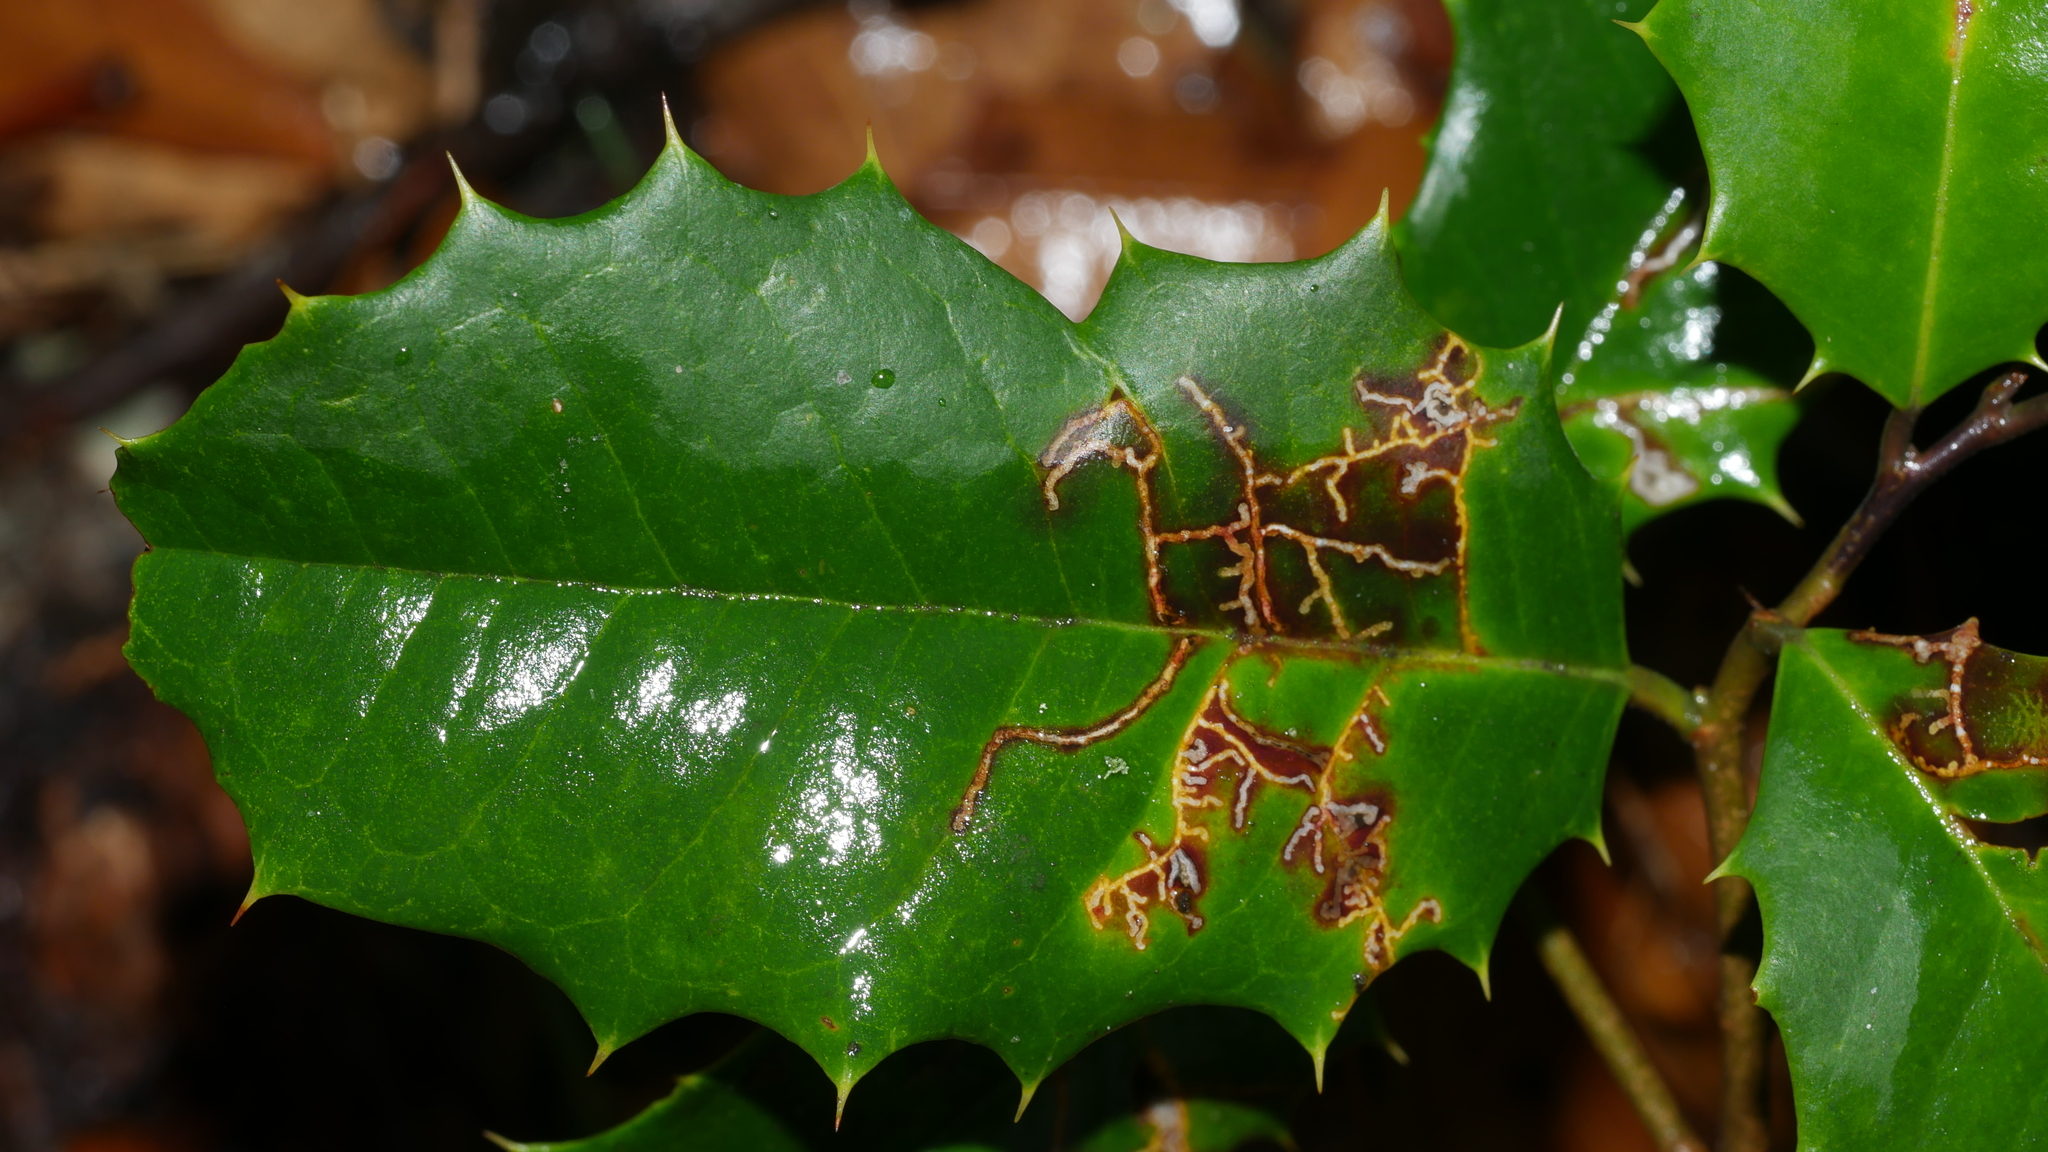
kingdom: Animalia
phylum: Arthropoda
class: Insecta
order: Lepidoptera
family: Tortricidae
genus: Rhopobota
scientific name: Rhopobota
